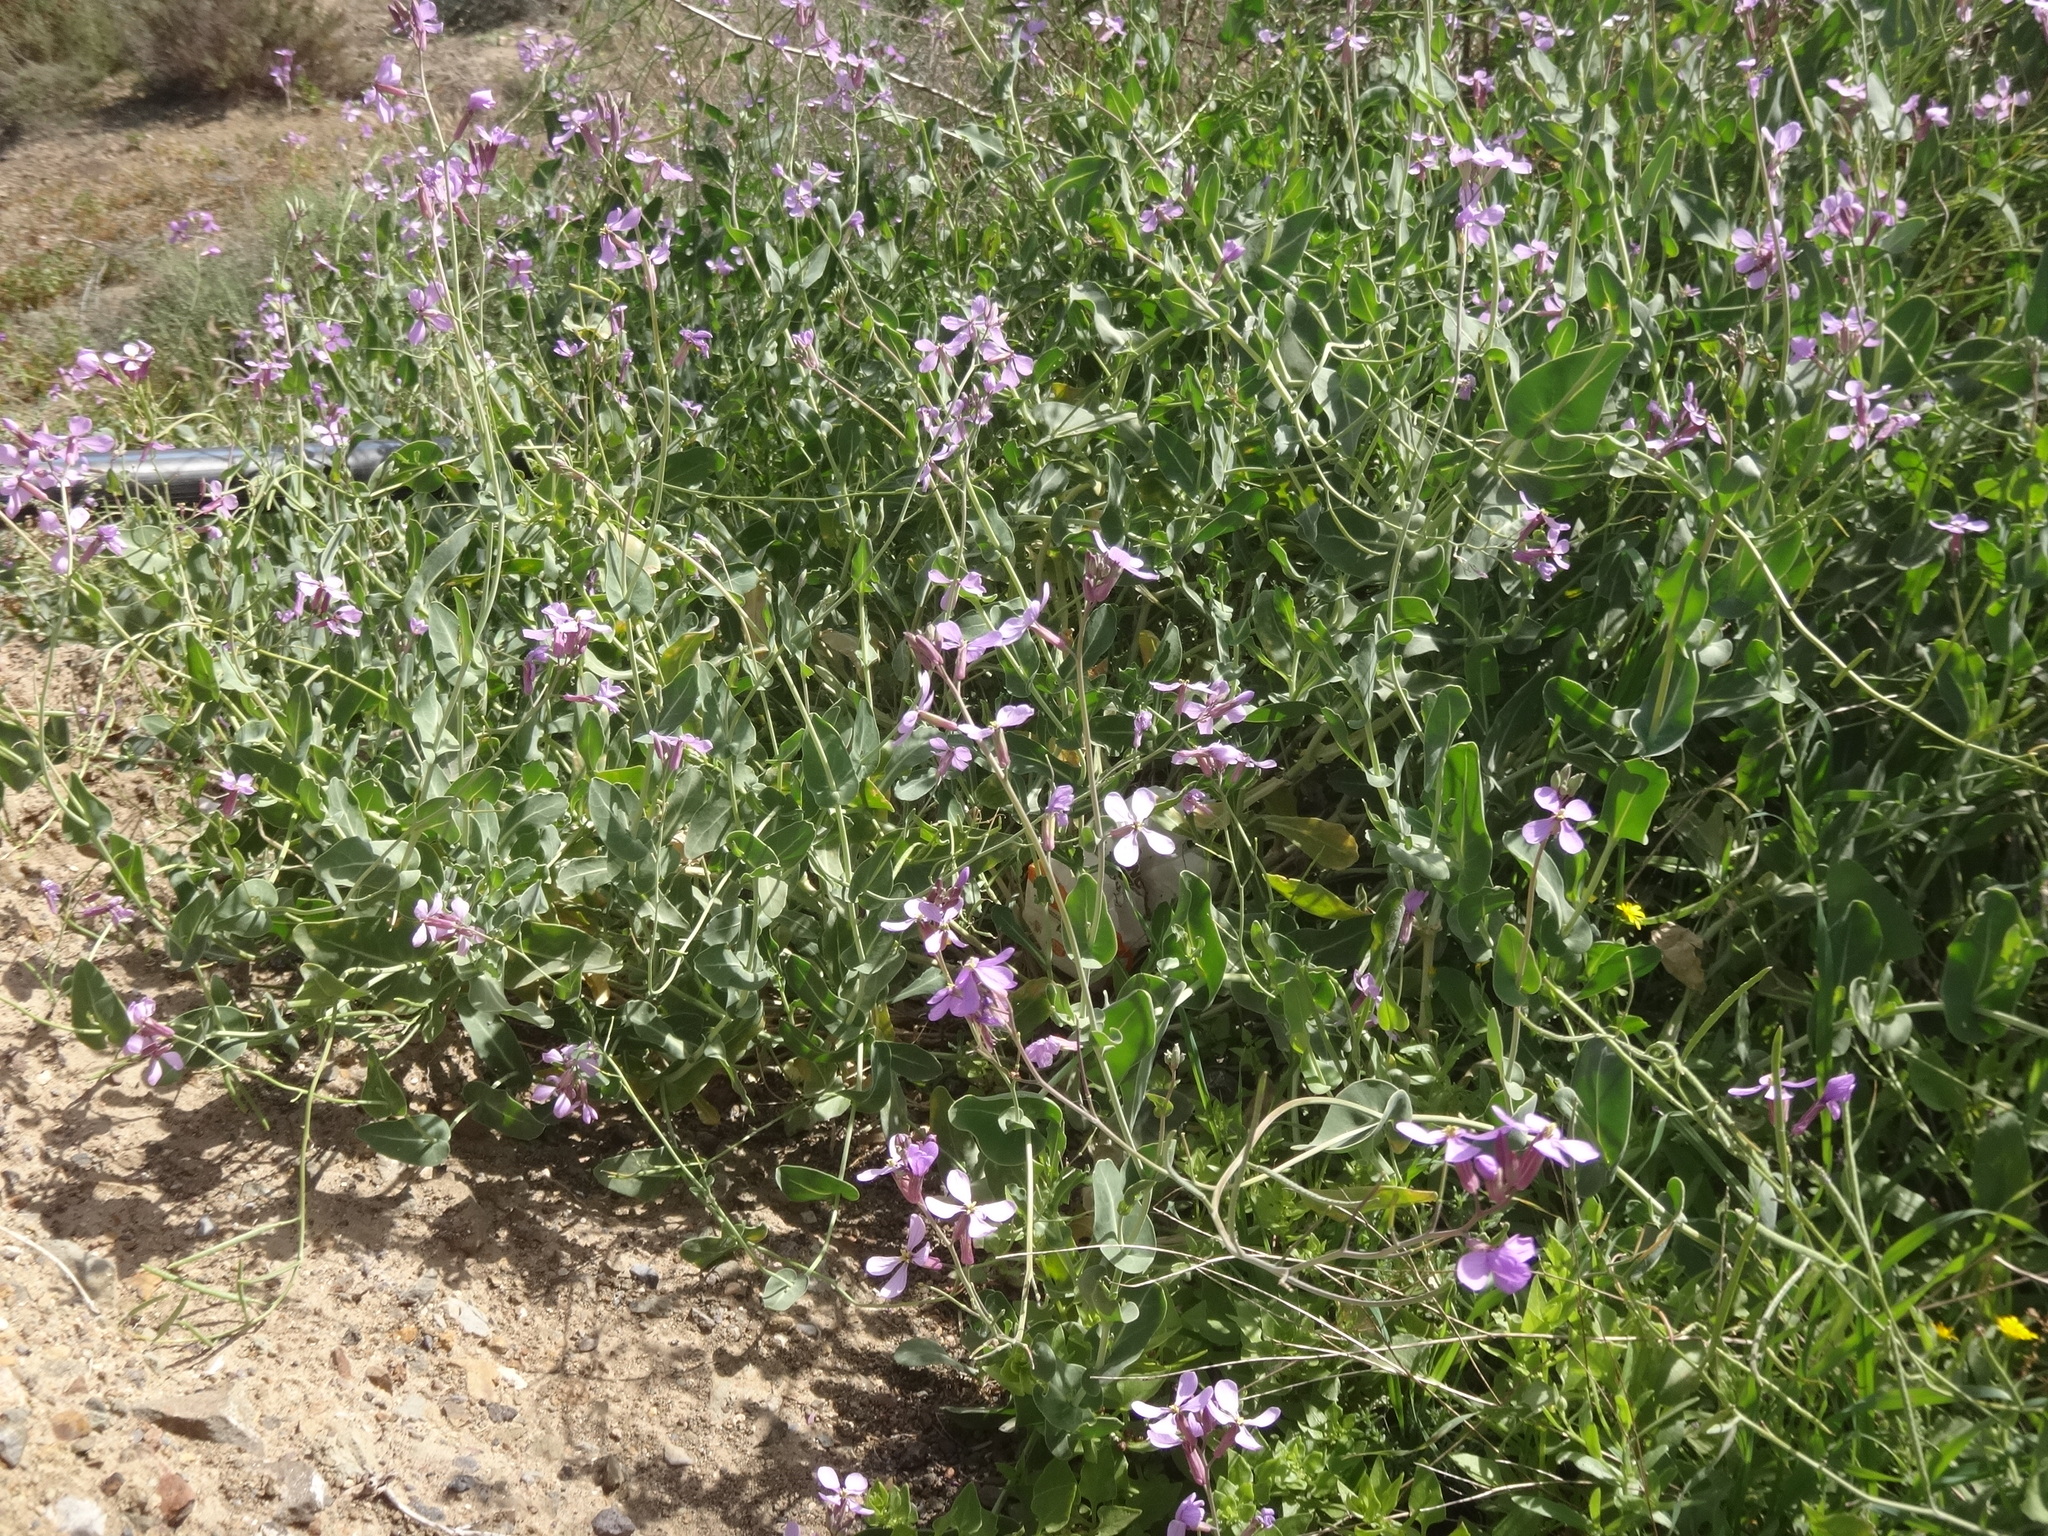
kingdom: Plantae
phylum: Tracheophyta
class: Magnoliopsida
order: Brassicales
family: Brassicaceae
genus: Moricandia
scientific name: Moricandia arvensis
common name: Purple mistress
